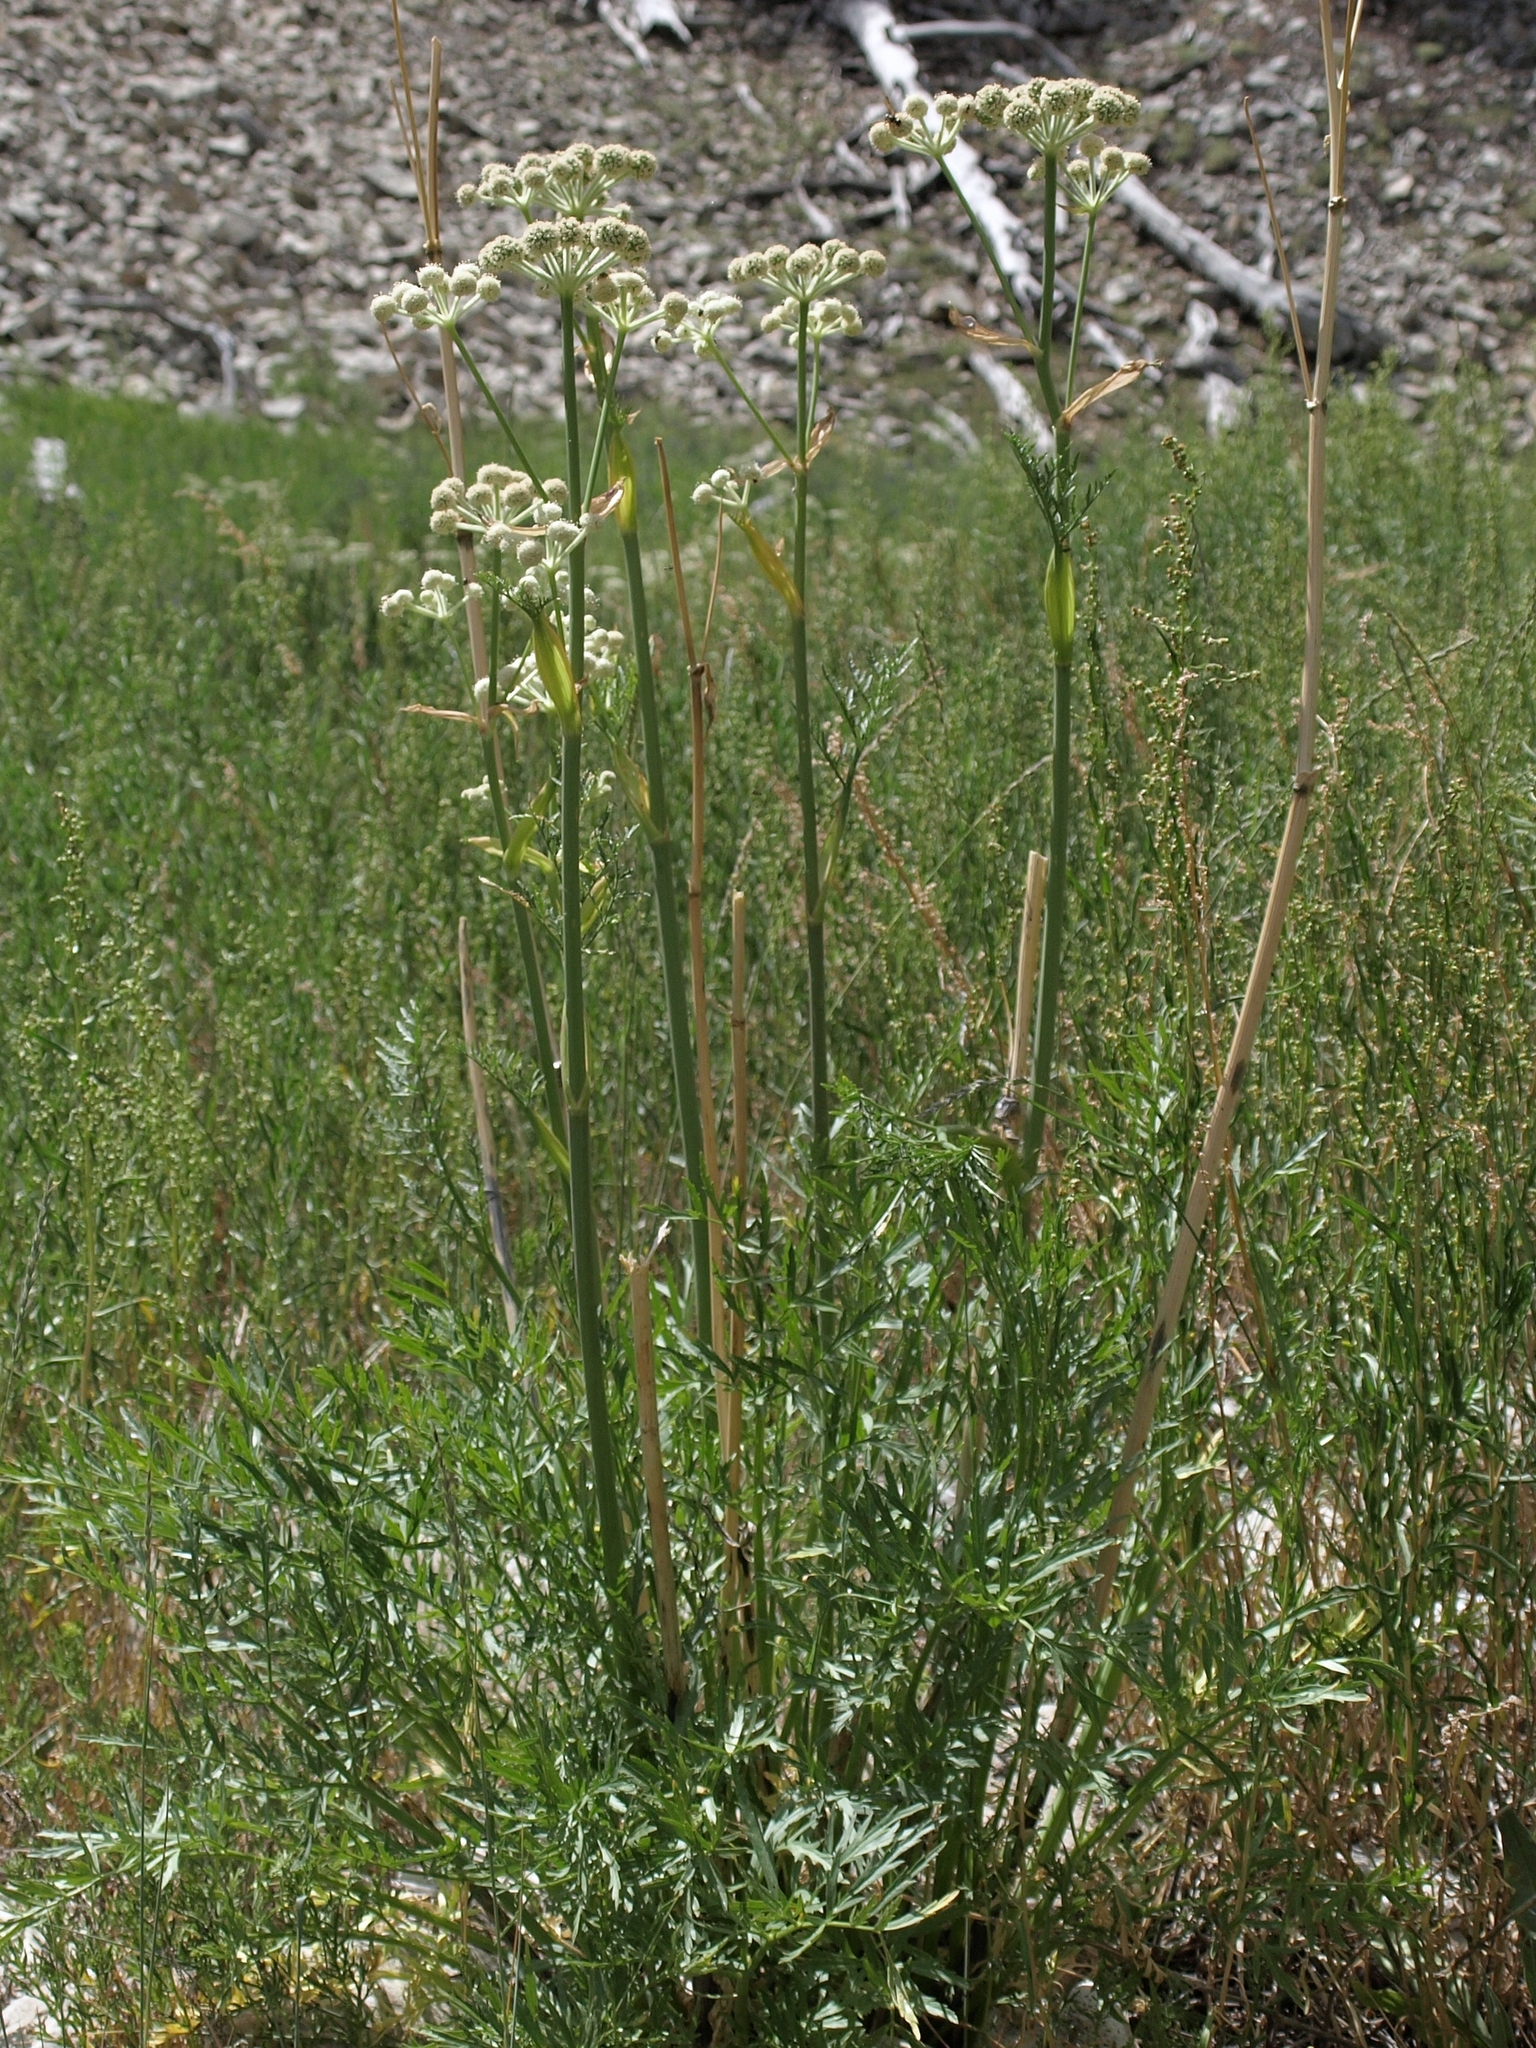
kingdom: Plantae
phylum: Tracheophyta
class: Magnoliopsida
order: Apiales
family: Apiaceae
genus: Angelica
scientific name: Angelica capitellata
